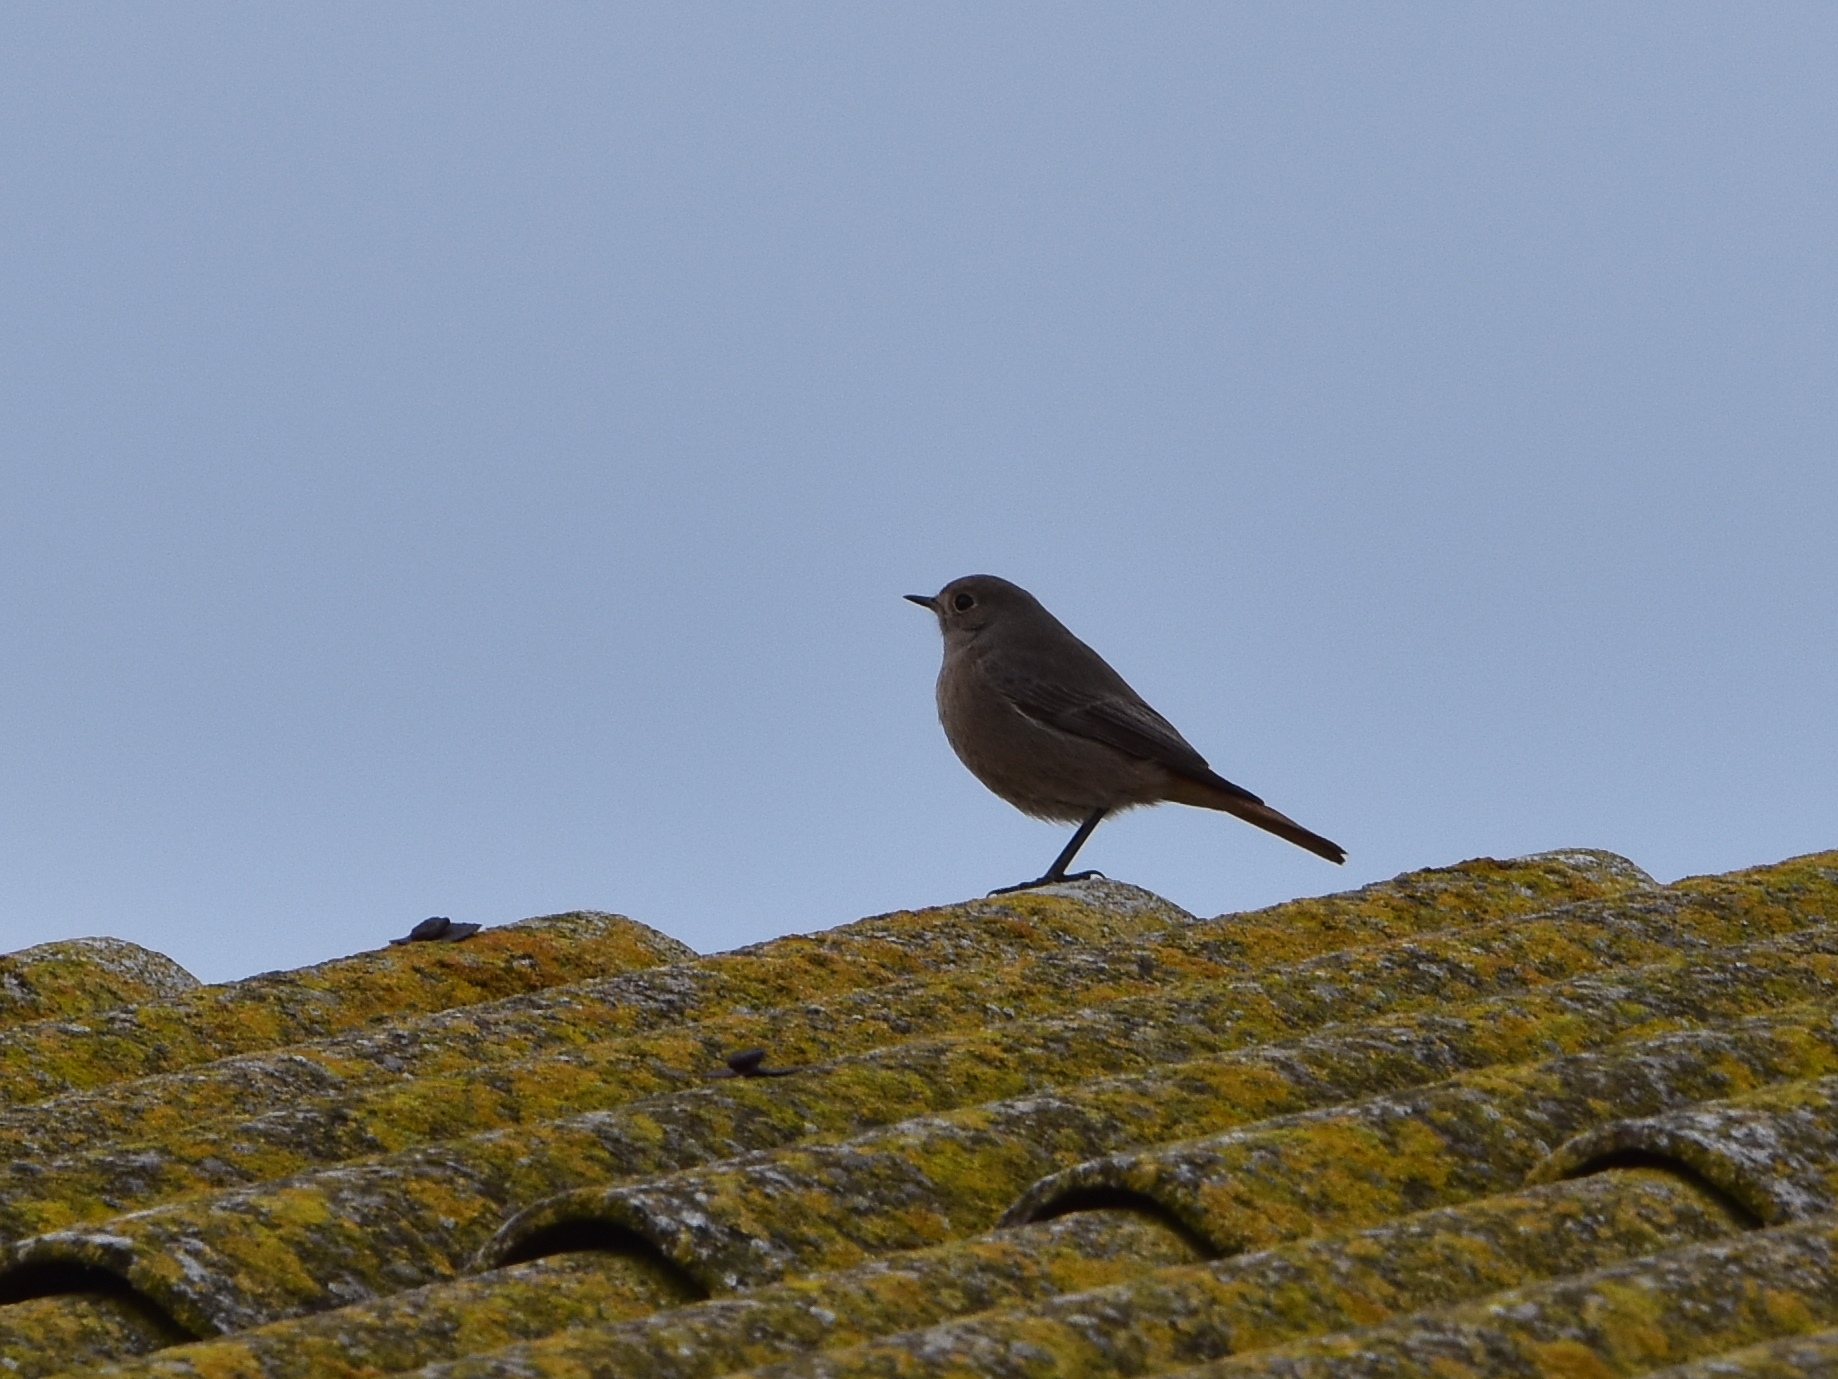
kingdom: Animalia
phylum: Chordata
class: Aves
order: Passeriformes
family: Muscicapidae
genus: Phoenicurus
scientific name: Phoenicurus ochruros
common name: Black redstart
